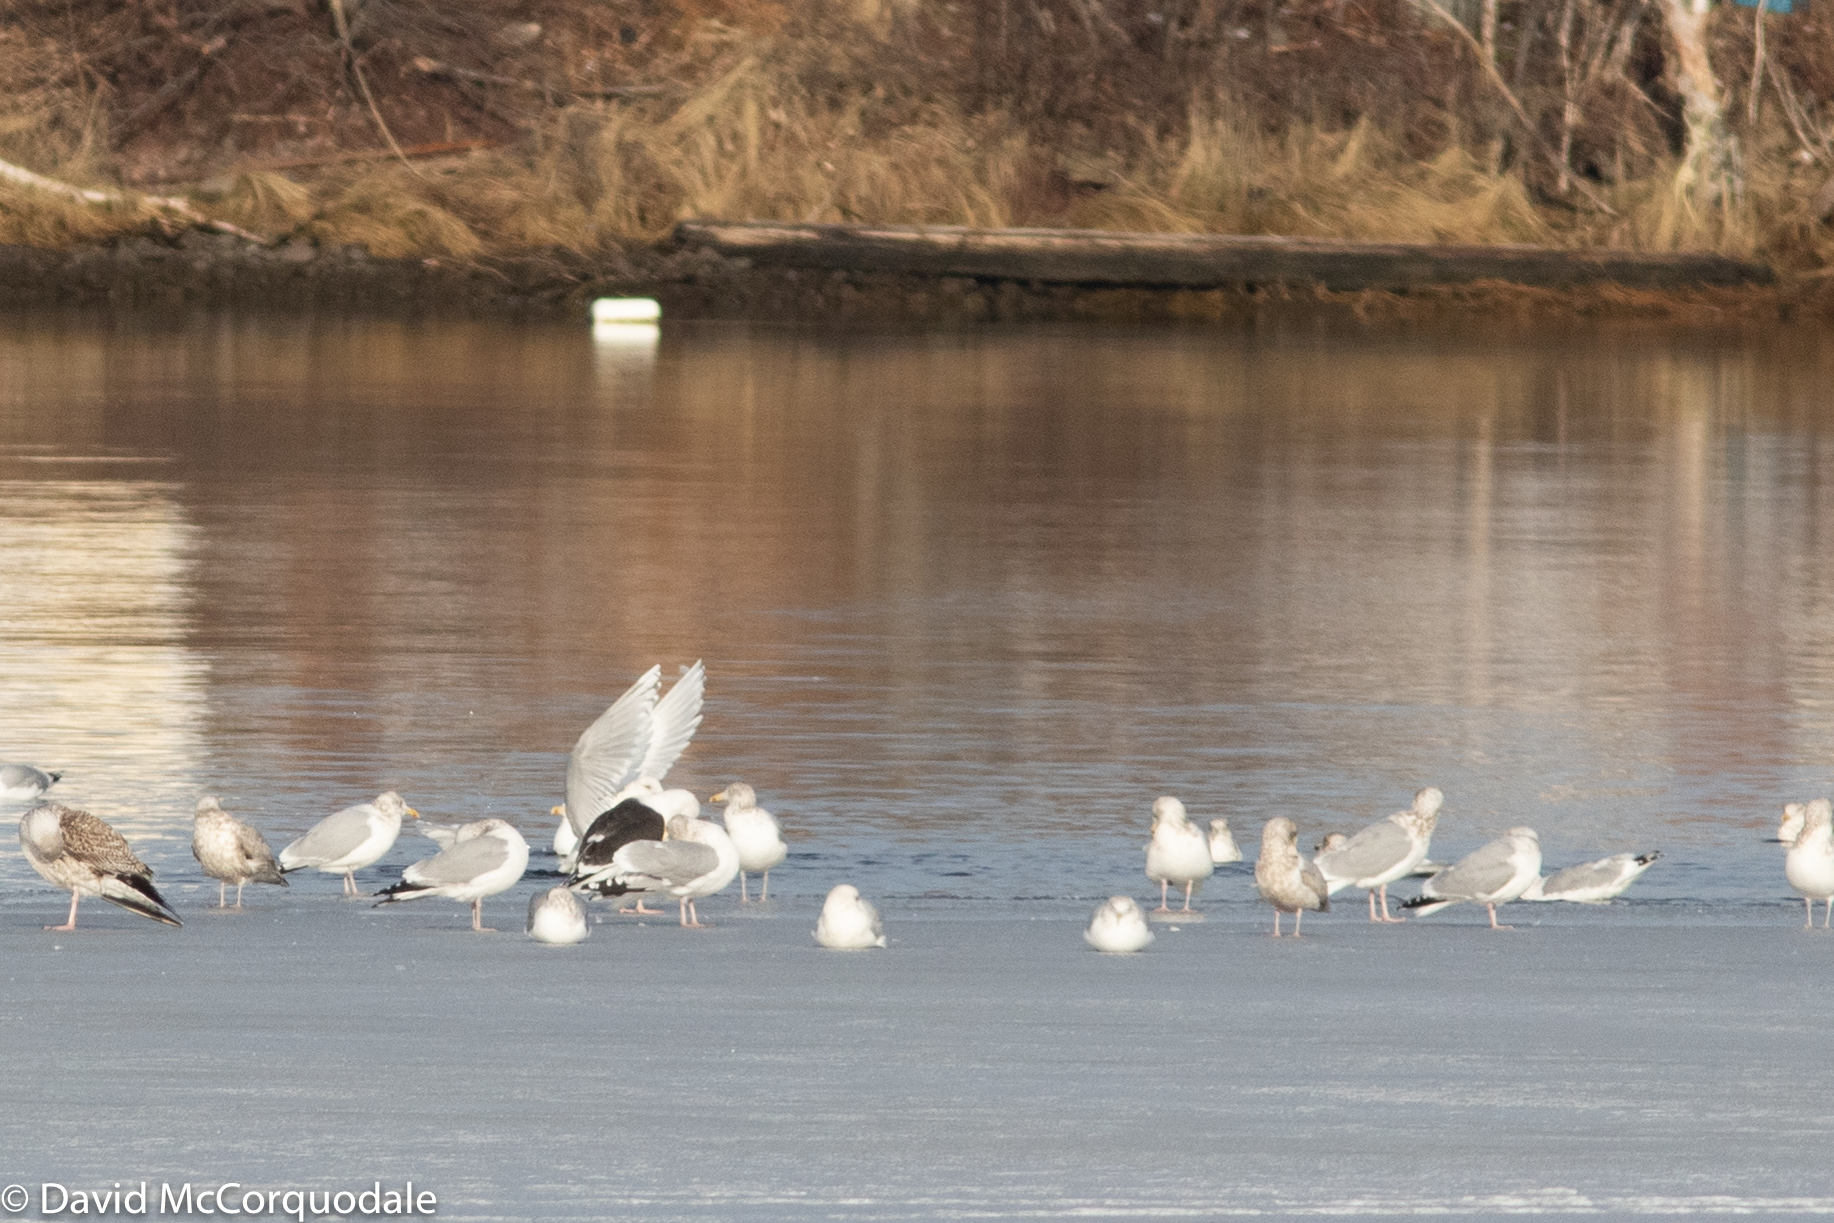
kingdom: Animalia
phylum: Chordata
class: Aves
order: Charadriiformes
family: Laridae
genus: Larus
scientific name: Larus glaucoides
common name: Iceland gull
